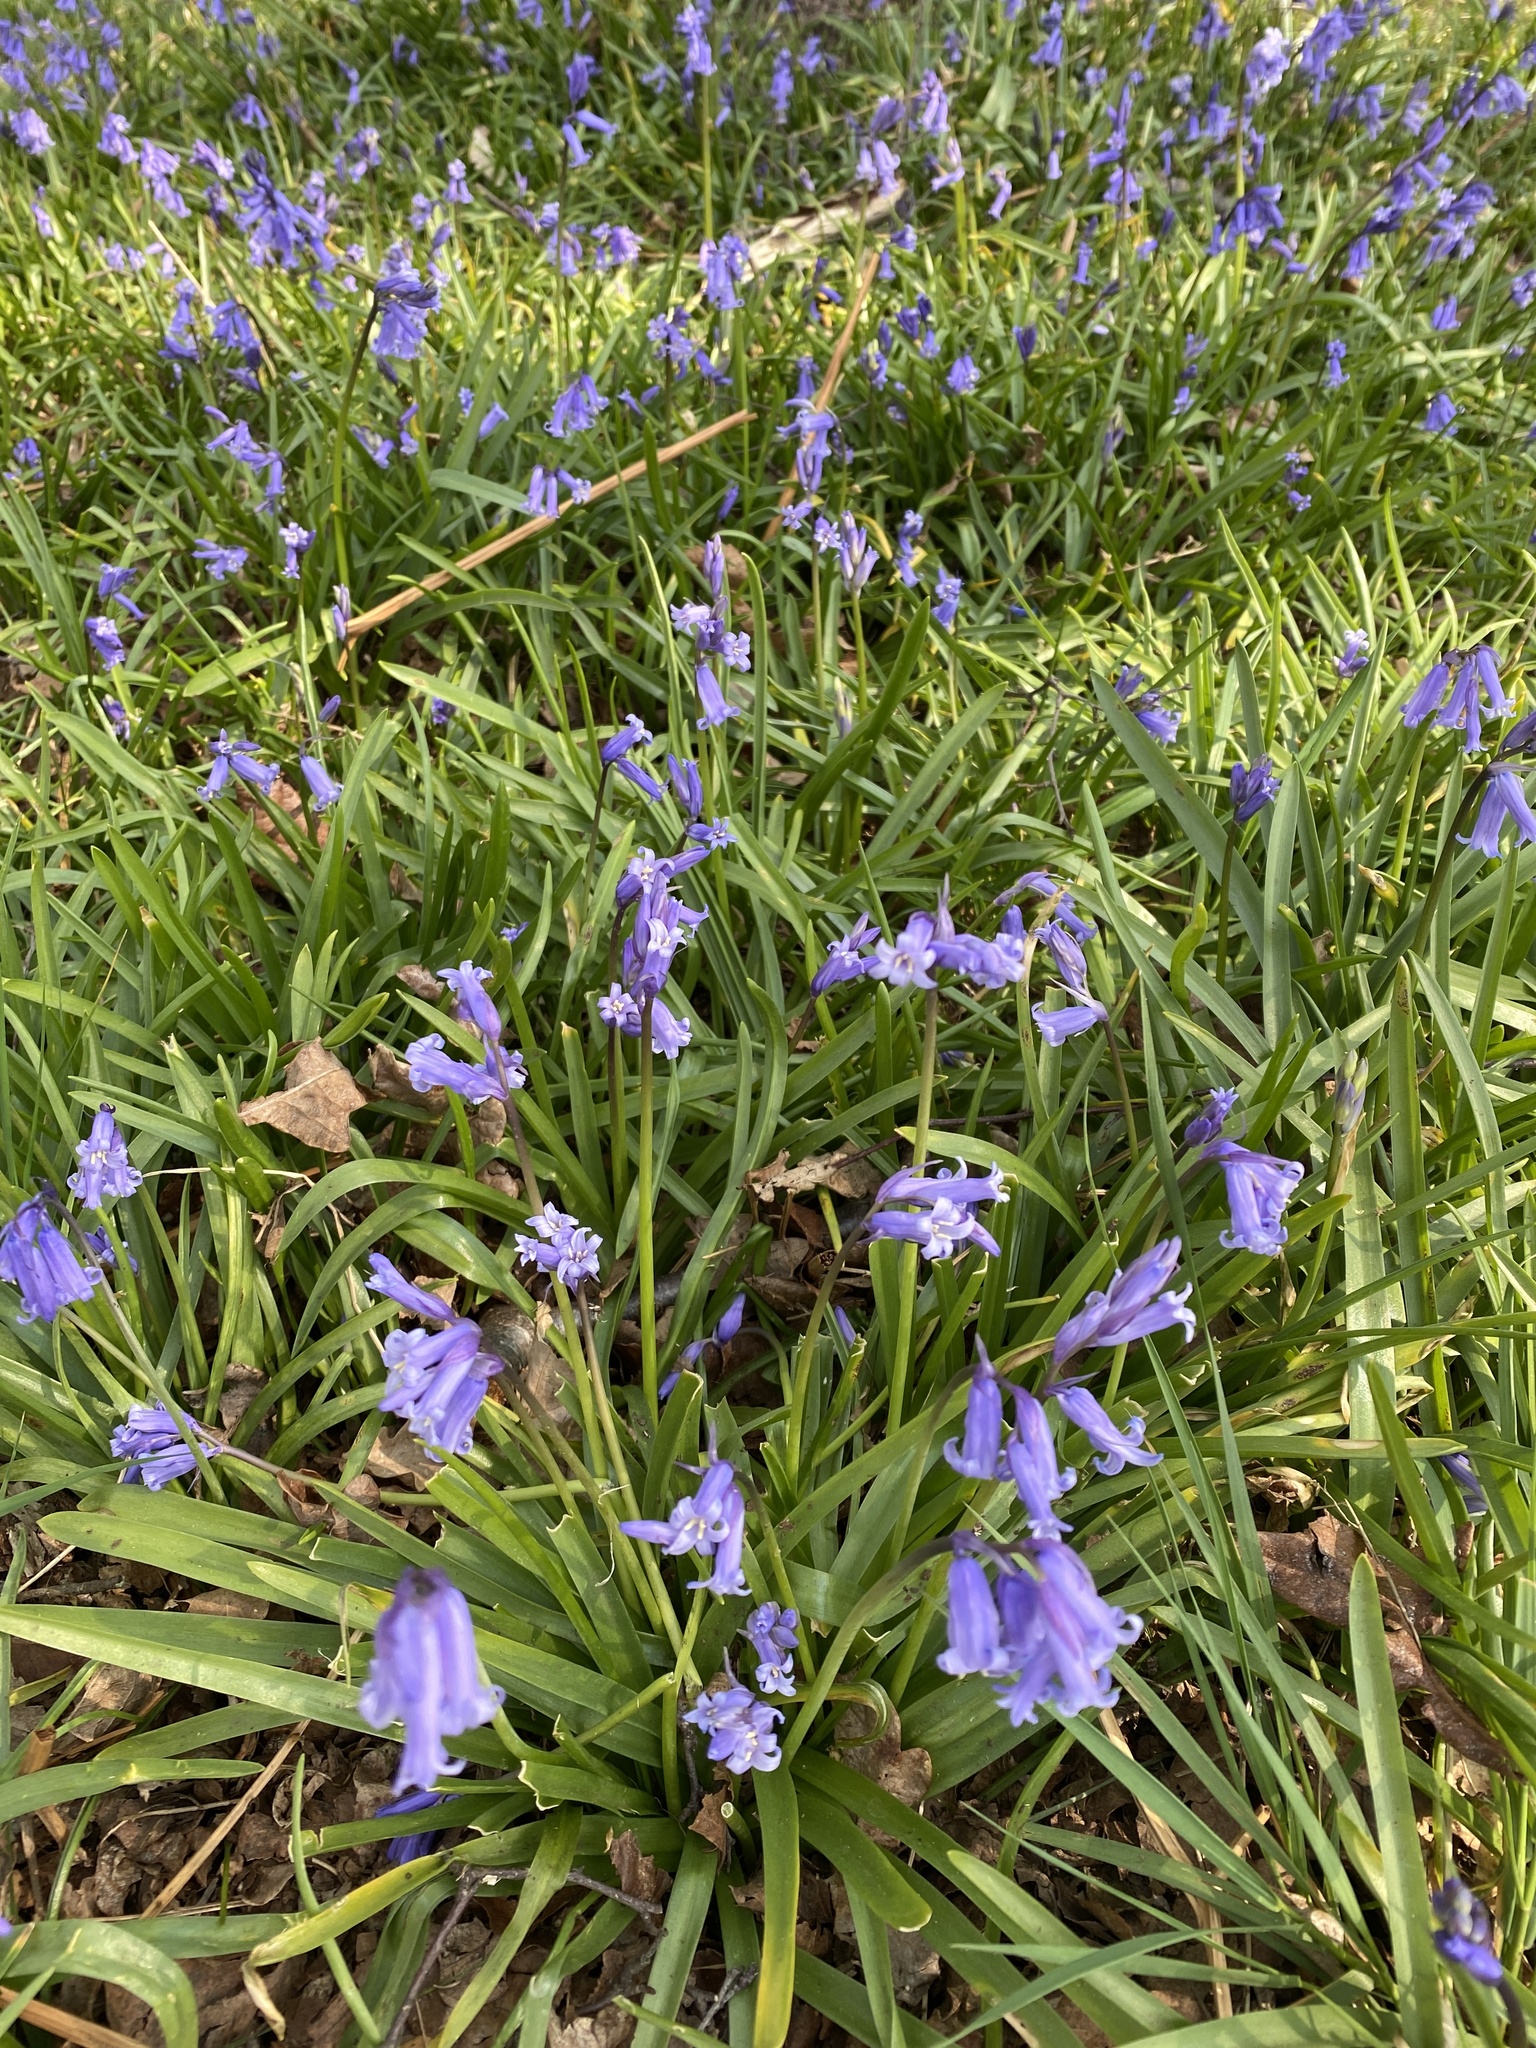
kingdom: Plantae
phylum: Tracheophyta
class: Liliopsida
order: Asparagales
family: Asparagaceae
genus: Hyacinthoides
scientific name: Hyacinthoides non-scripta
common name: Bluebell
